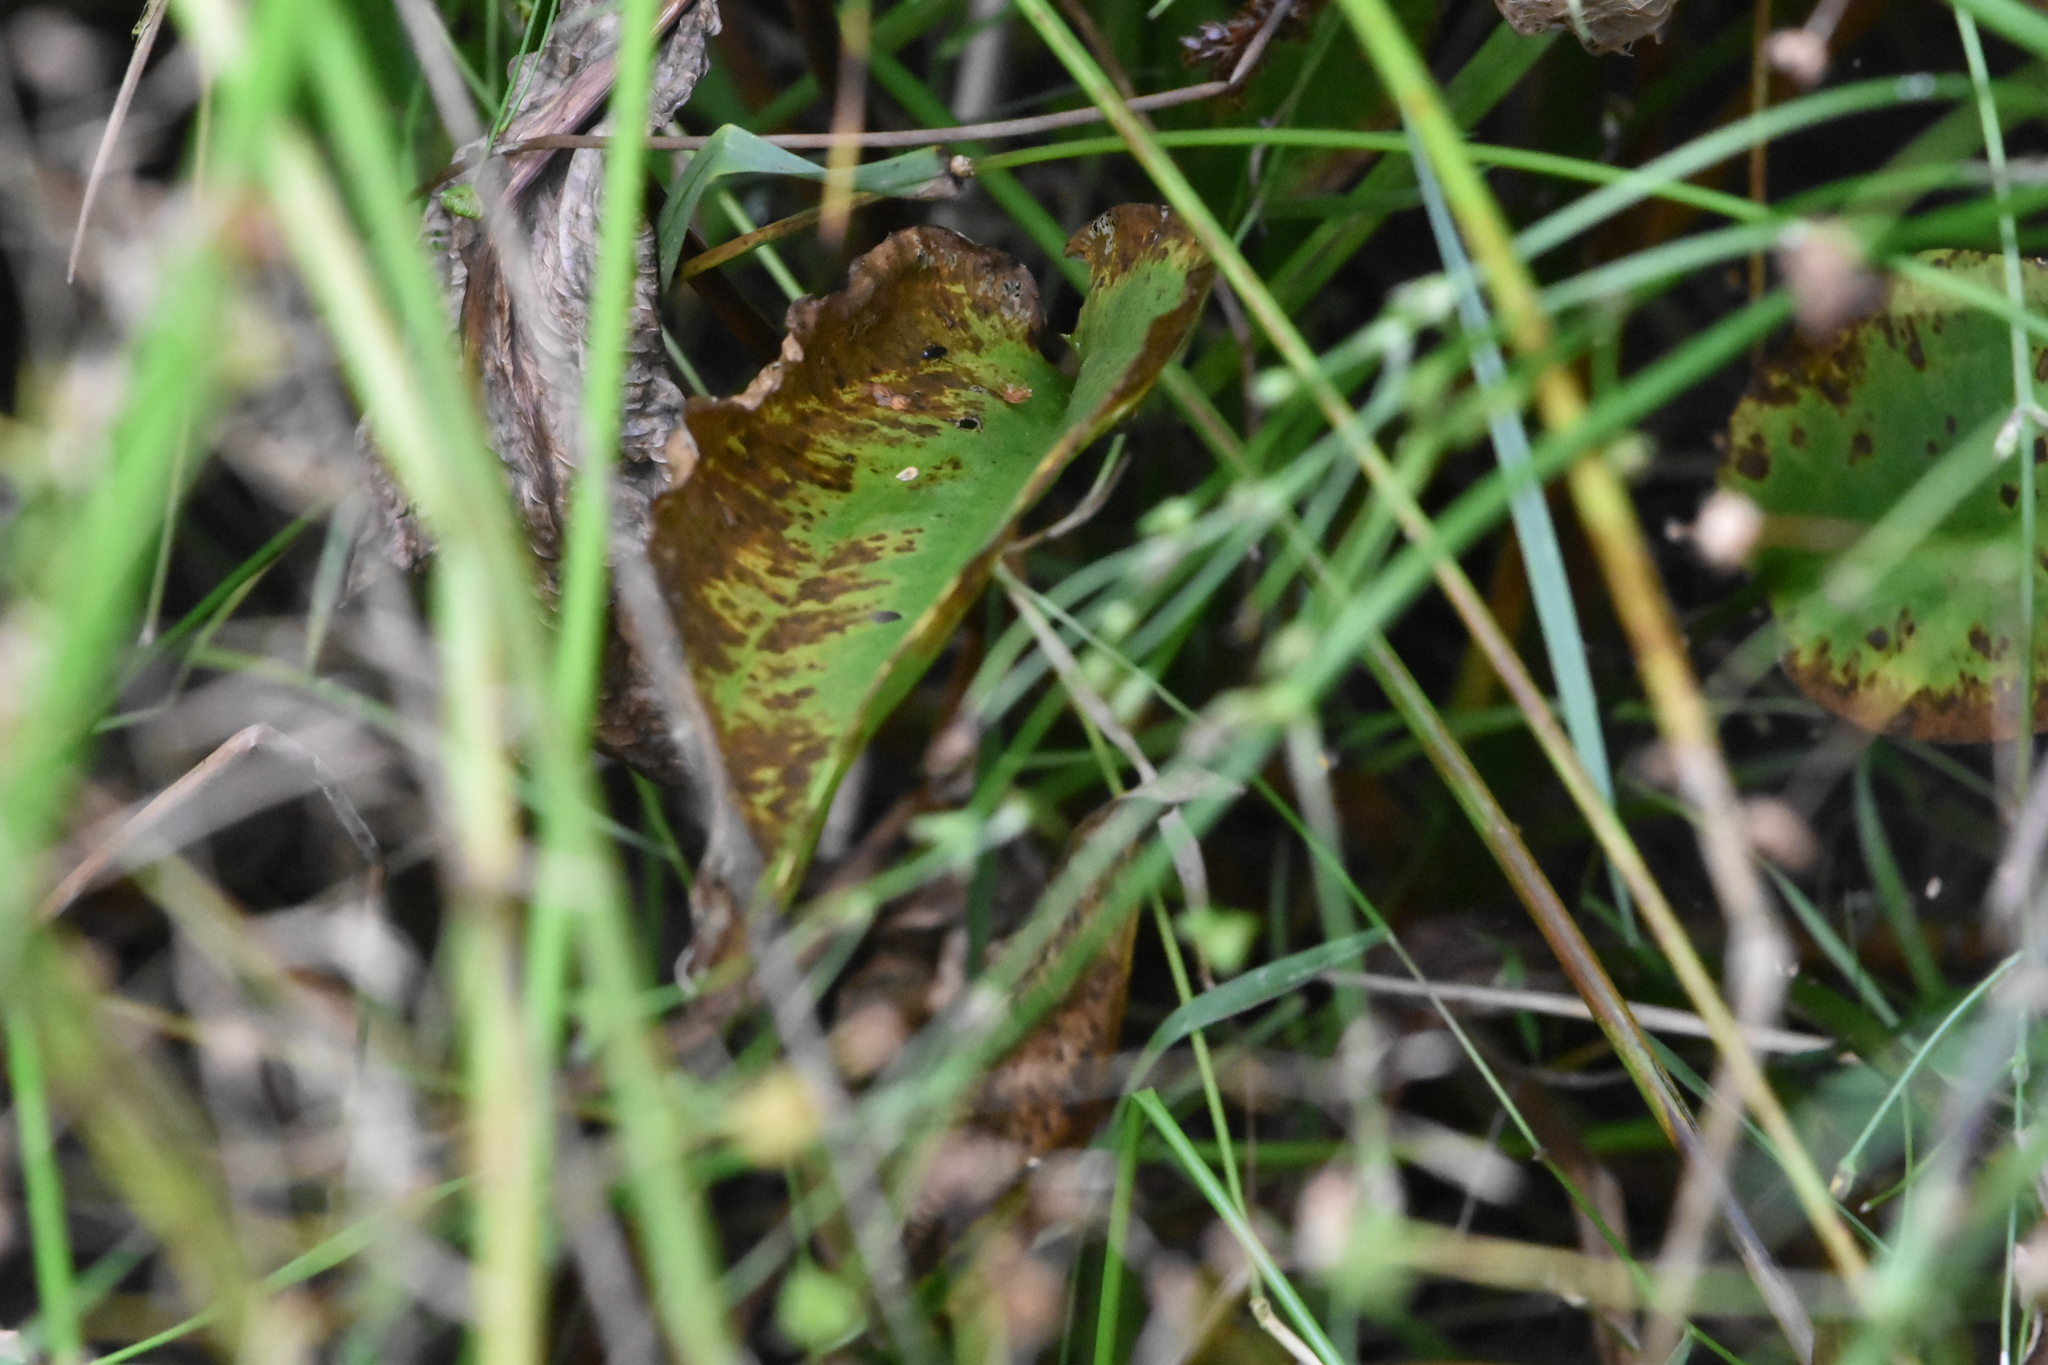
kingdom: Plantae
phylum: Tracheophyta
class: Liliopsida
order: Alismatales
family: Alismataceae
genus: Alisma
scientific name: Alisma plantago-aquatica
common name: Water-plantain
